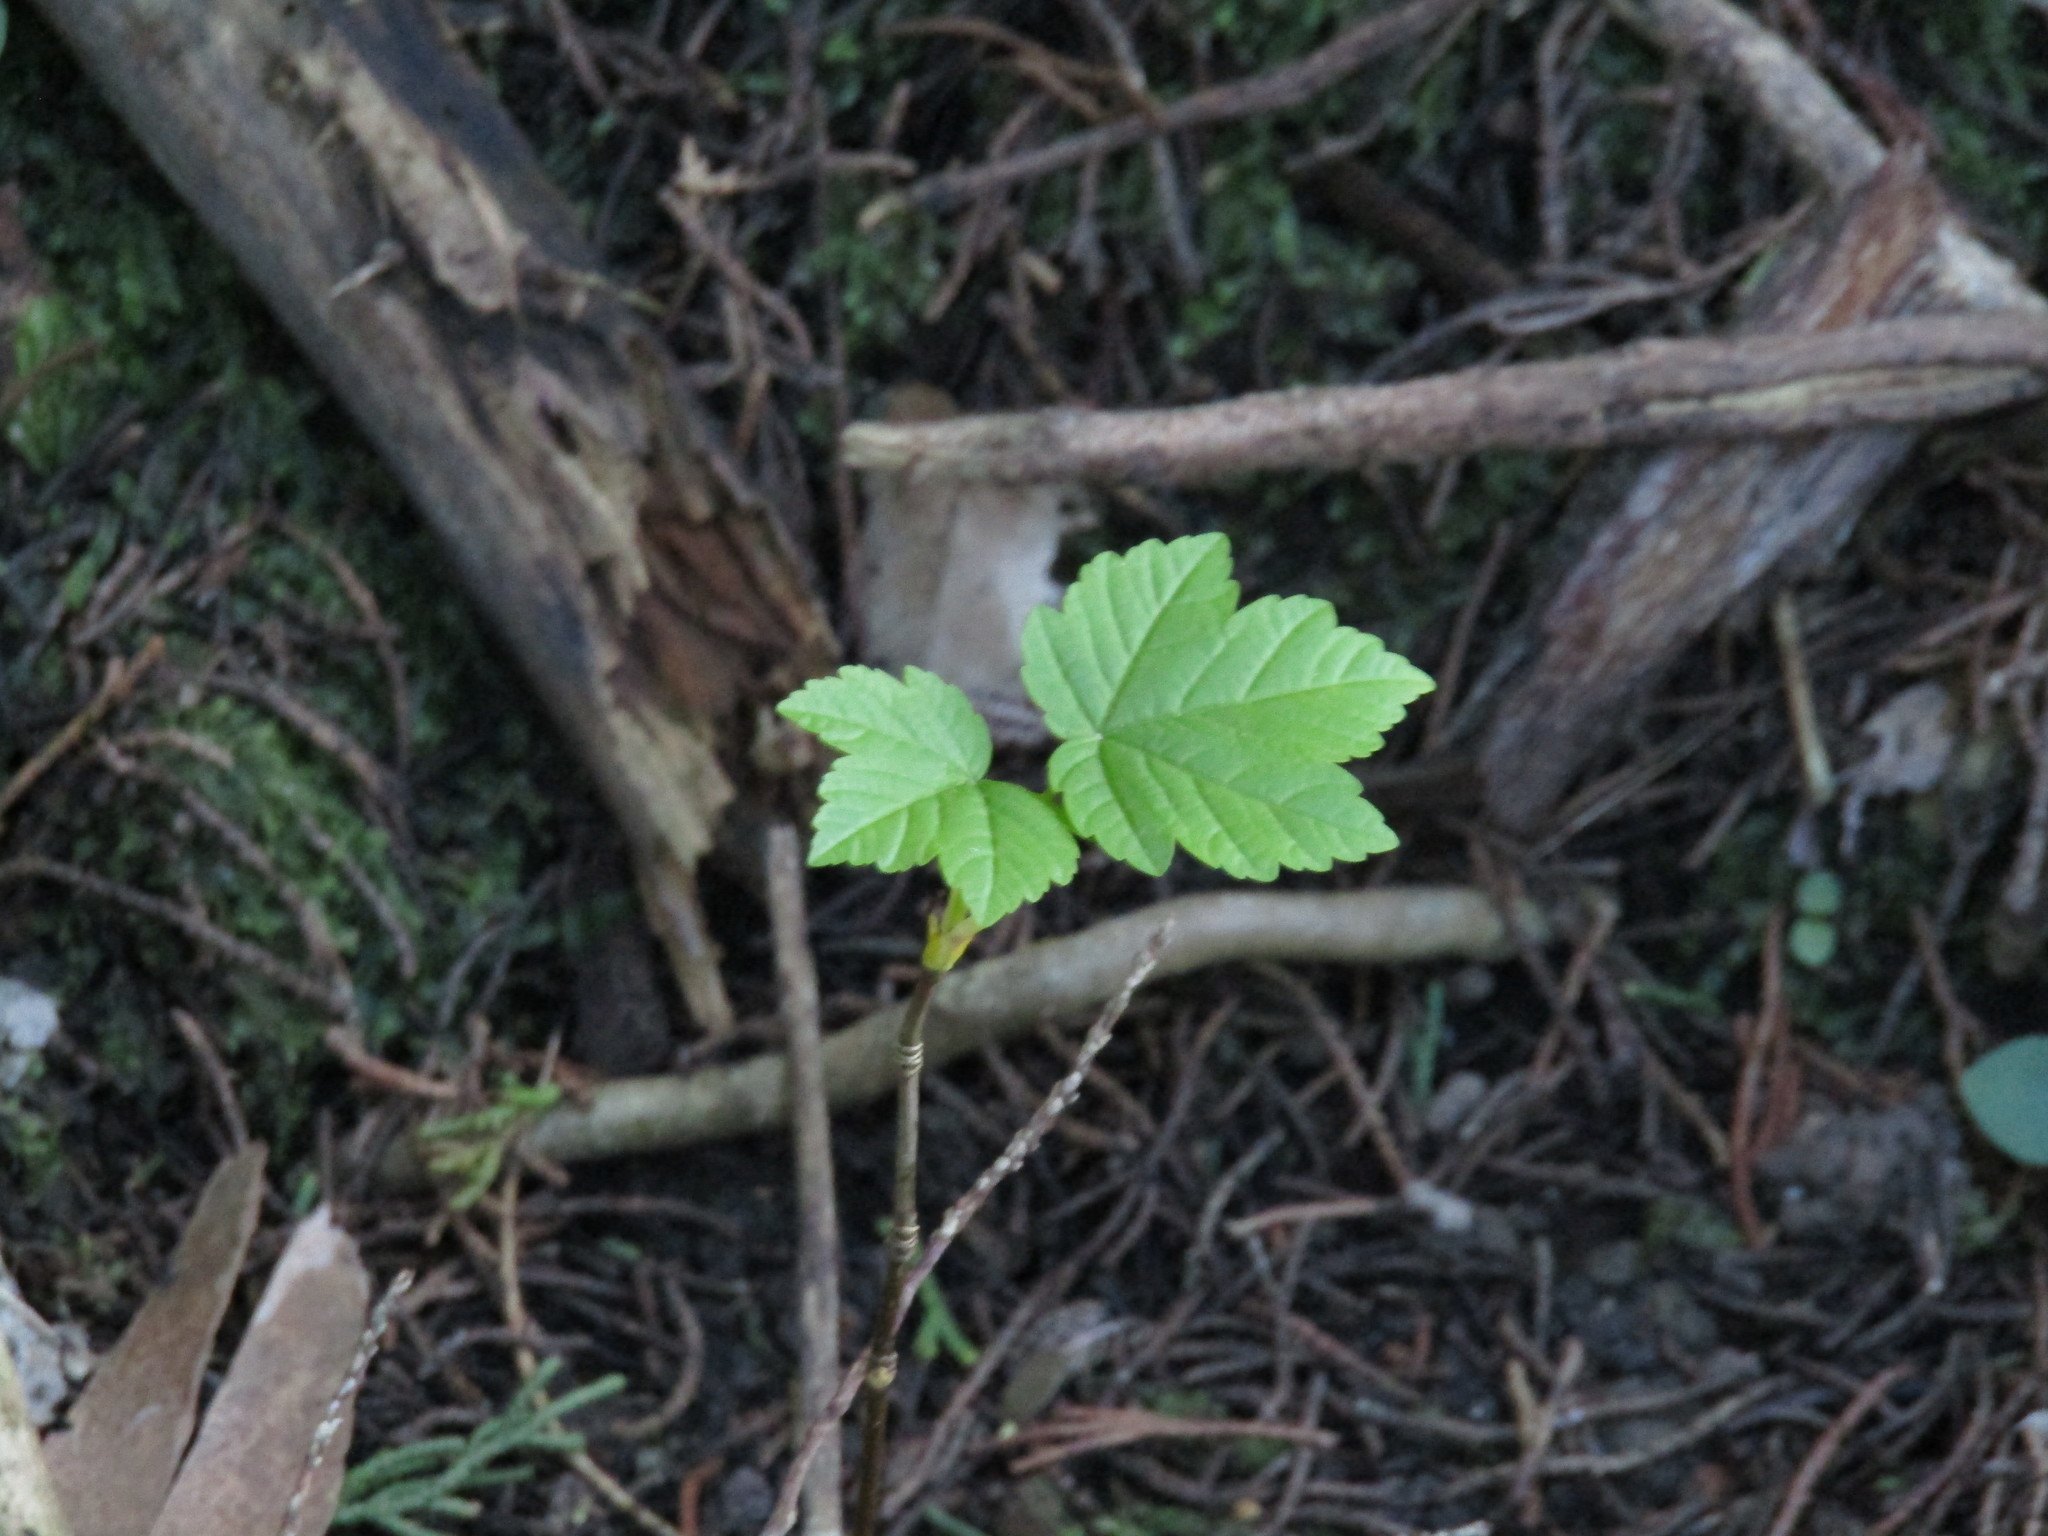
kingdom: Plantae
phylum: Tracheophyta
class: Magnoliopsida
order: Sapindales
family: Sapindaceae
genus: Acer
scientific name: Acer pseudoplatanus
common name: Sycamore
